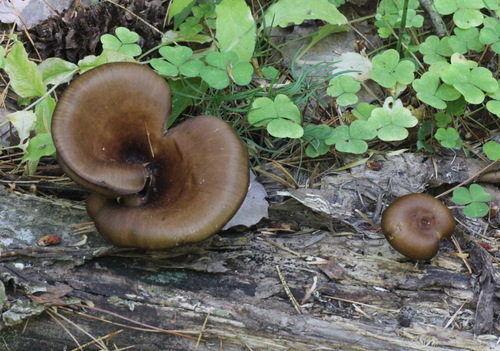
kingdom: Fungi
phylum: Basidiomycota
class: Agaricomycetes
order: Polyporales
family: Polyporaceae
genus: Picipes
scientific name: Picipes badius
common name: Bay polypore
